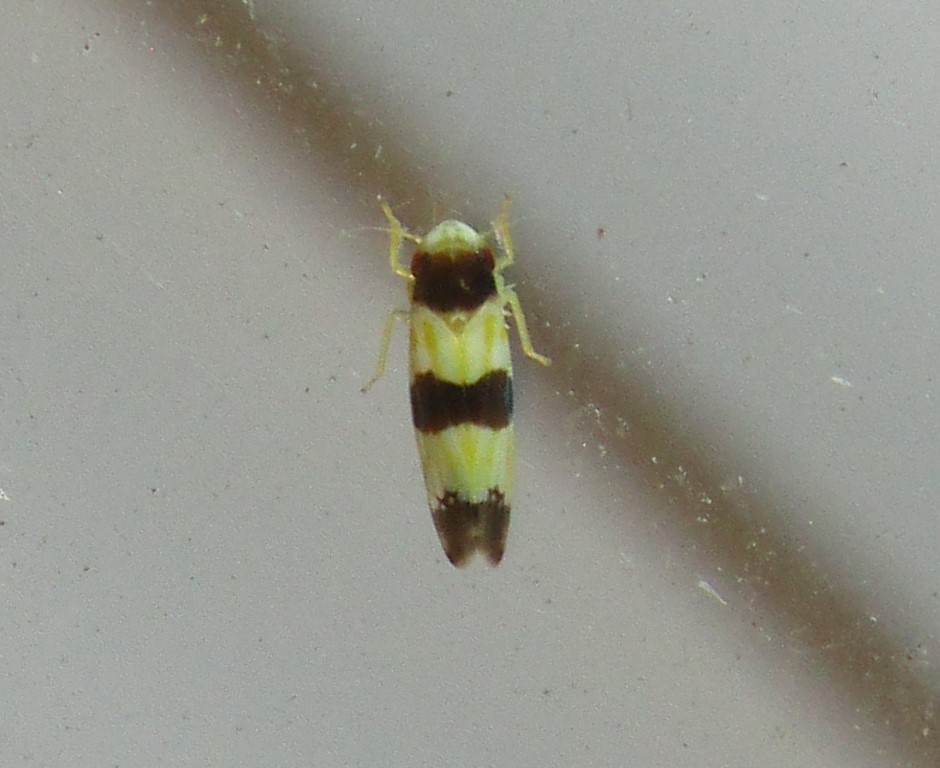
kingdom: Animalia
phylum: Arthropoda
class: Insecta
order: Hemiptera
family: Cicadellidae
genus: Erythroneura
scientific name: Erythroneura tricincta
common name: The threebanded grape leafhopper
